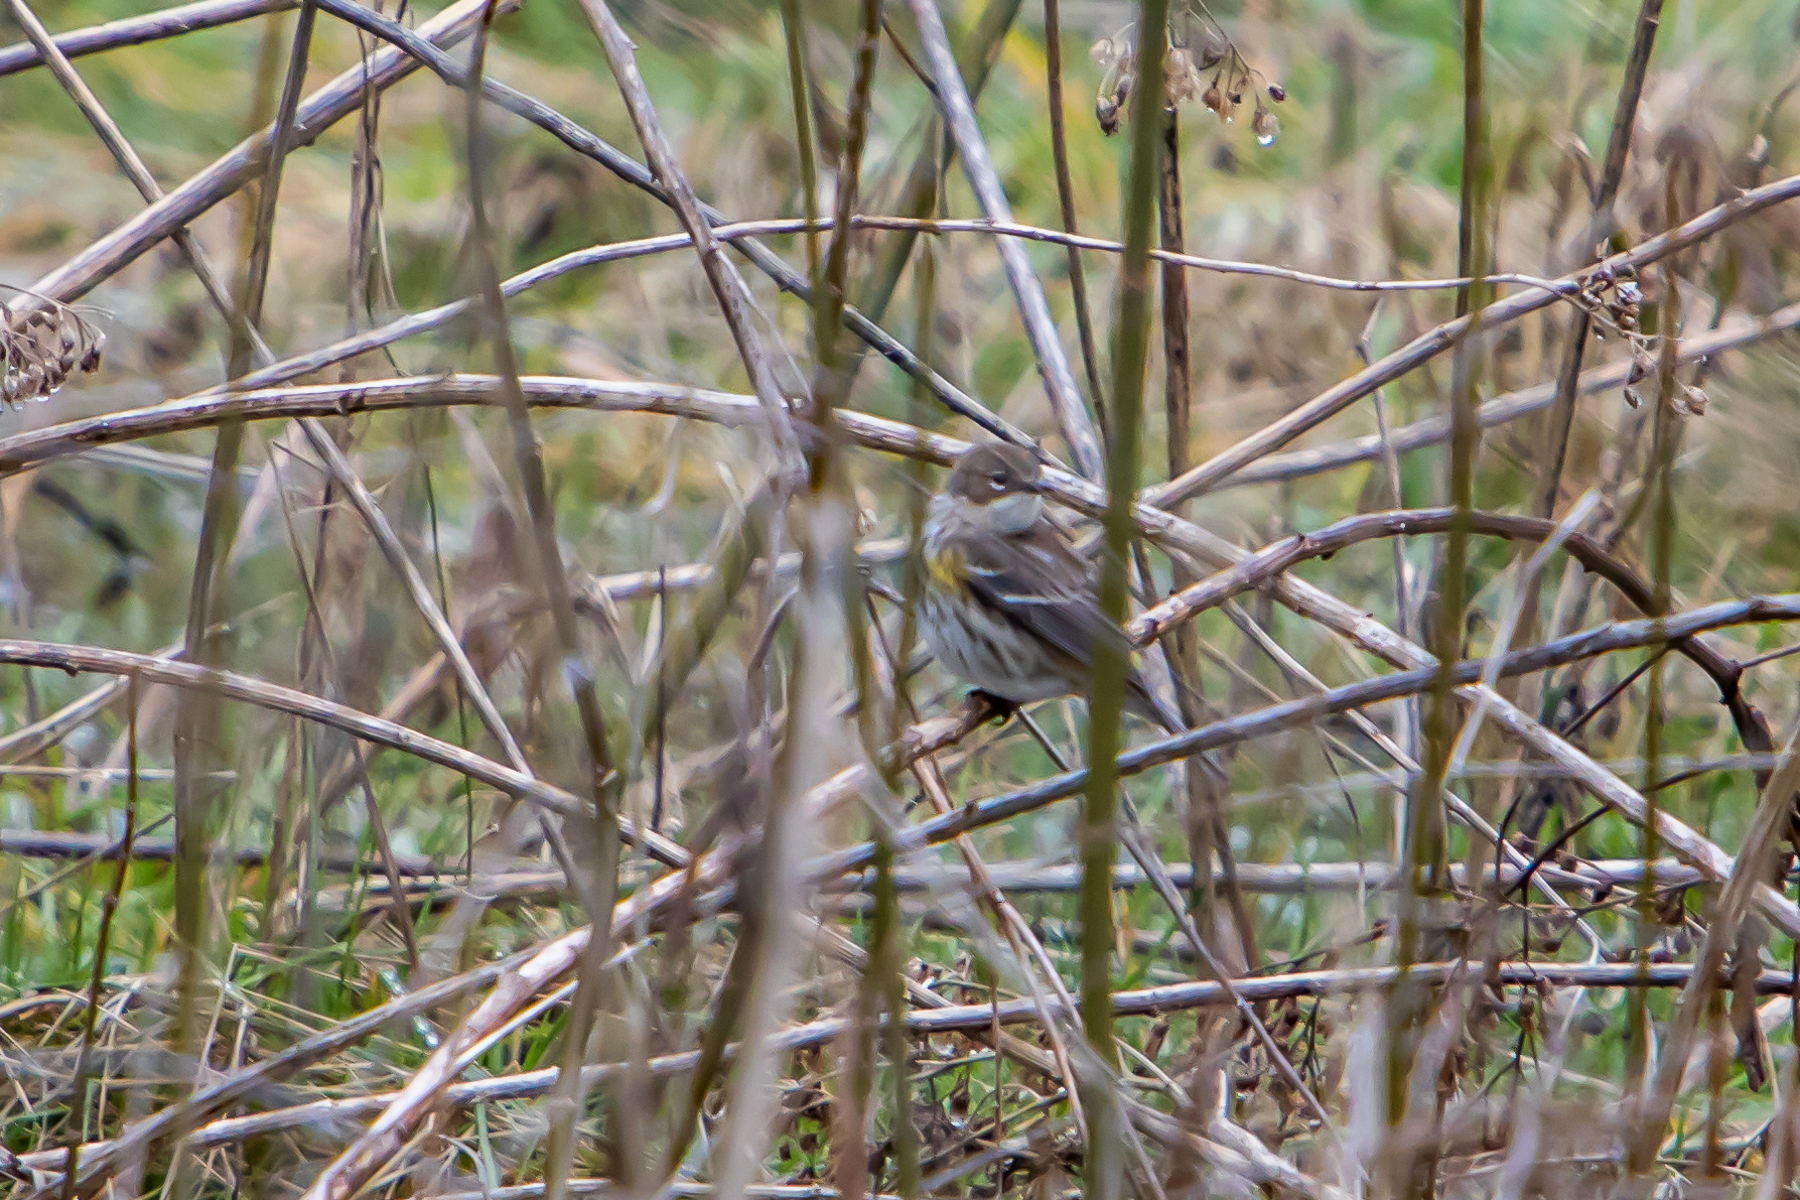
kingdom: Animalia
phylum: Chordata
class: Aves
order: Passeriformes
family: Parulidae
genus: Setophaga
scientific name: Setophaga coronata
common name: Myrtle warbler
